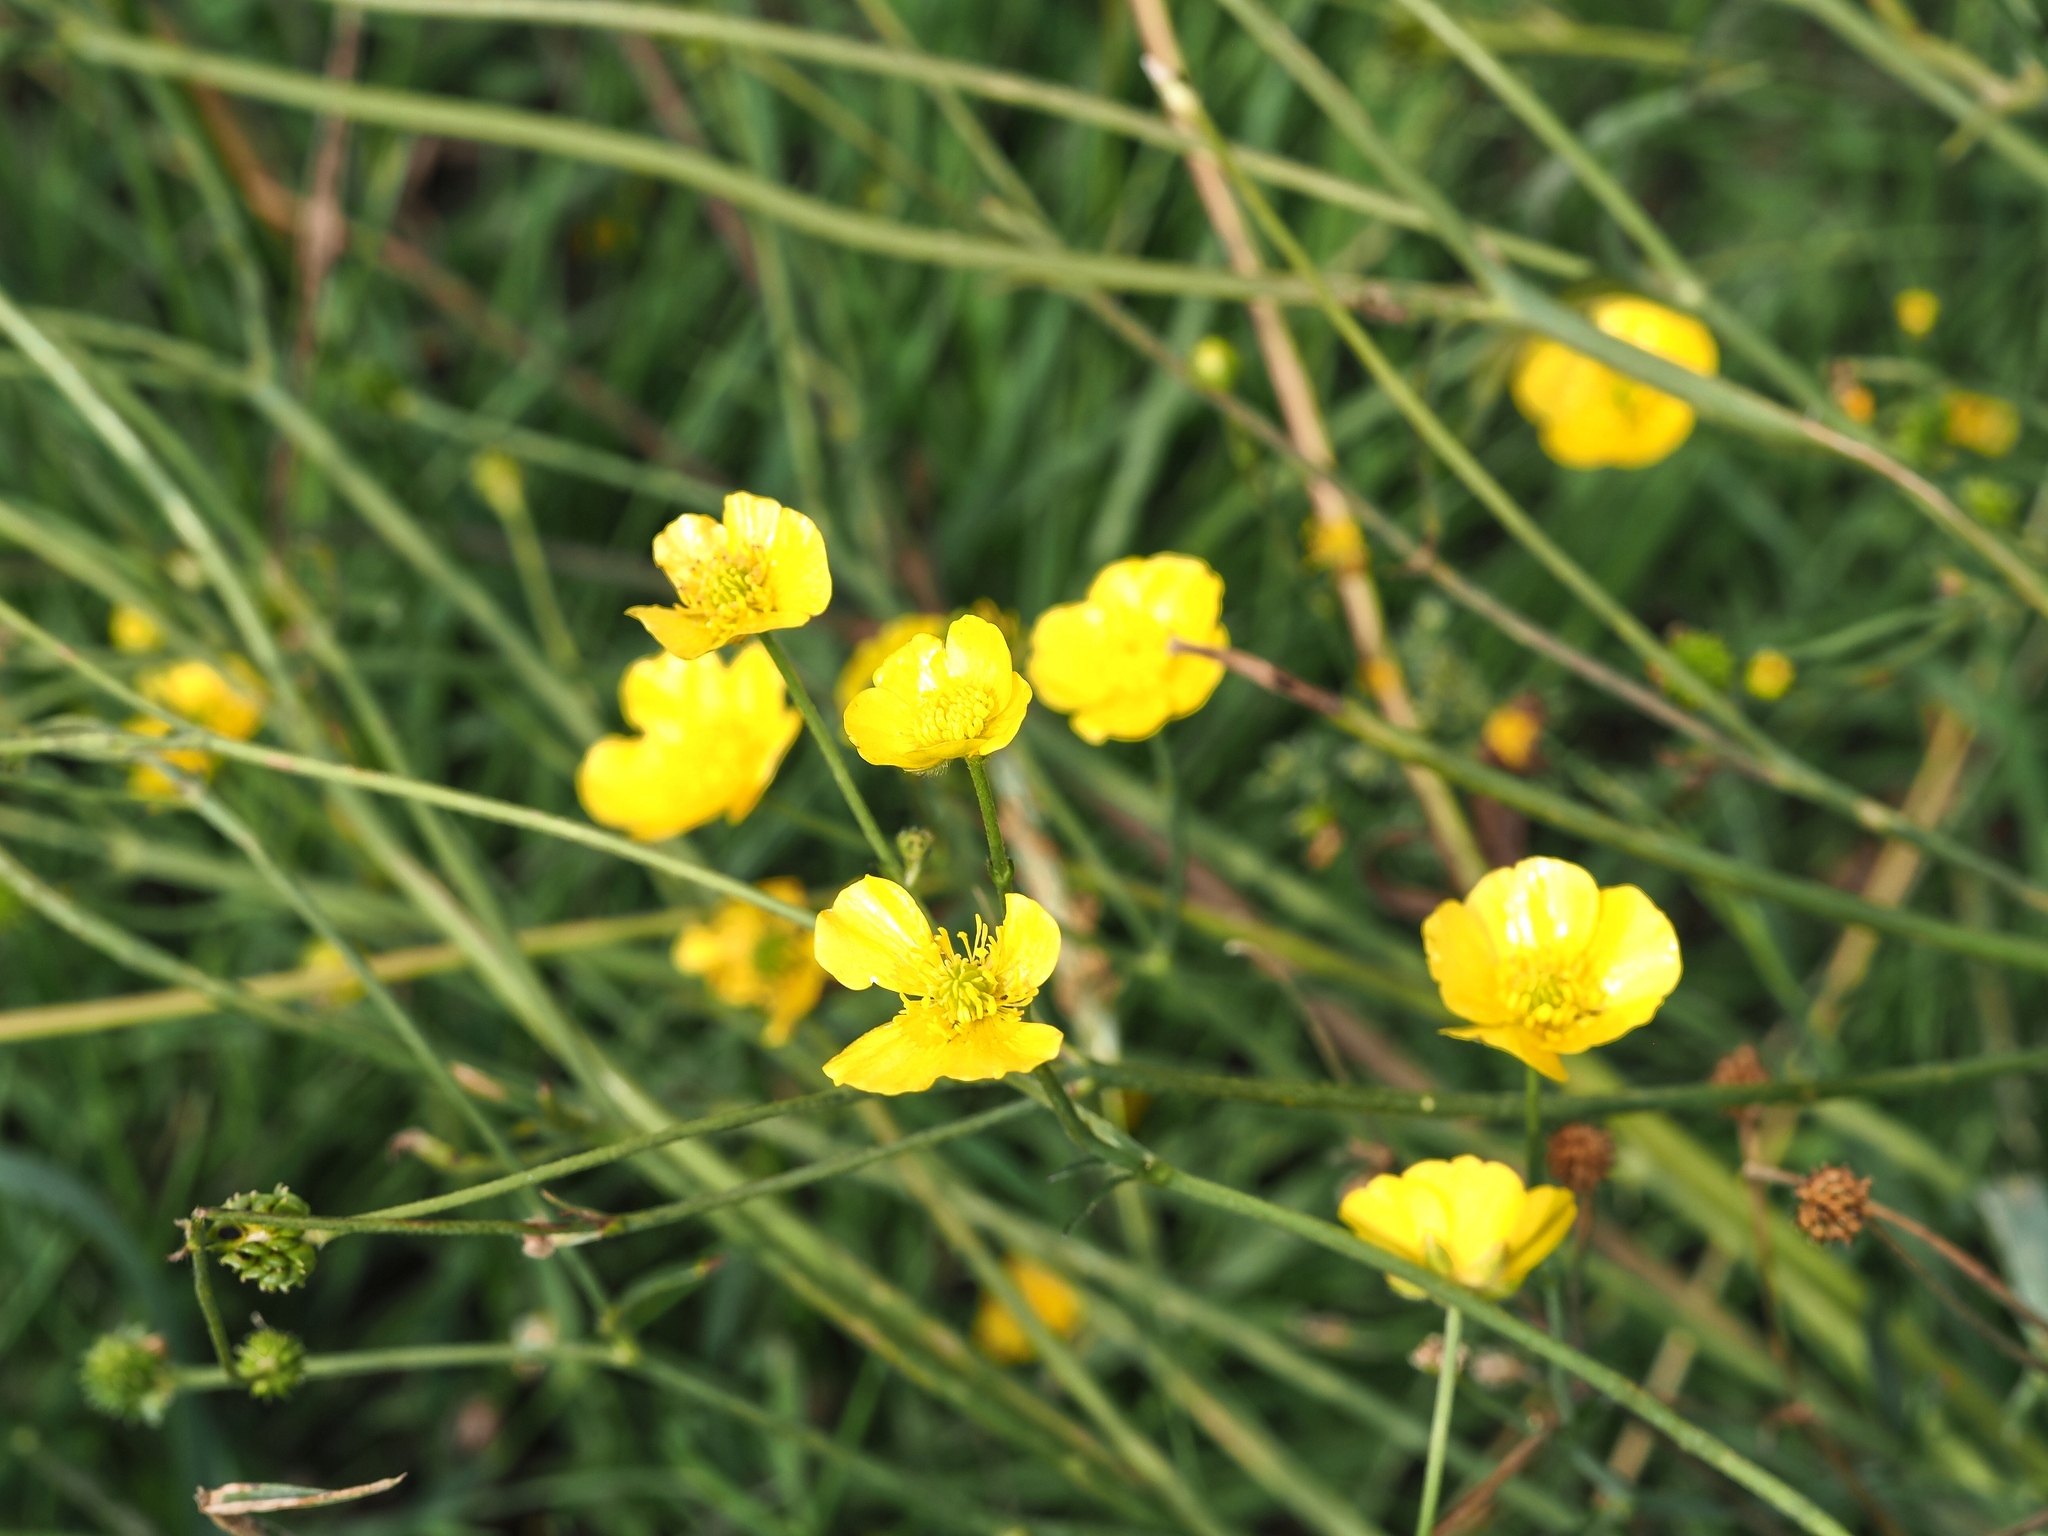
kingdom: Plantae
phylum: Tracheophyta
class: Magnoliopsida
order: Ranunculales
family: Ranunculaceae
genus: Ranunculus
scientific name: Ranunculus acris
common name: Meadow buttercup
